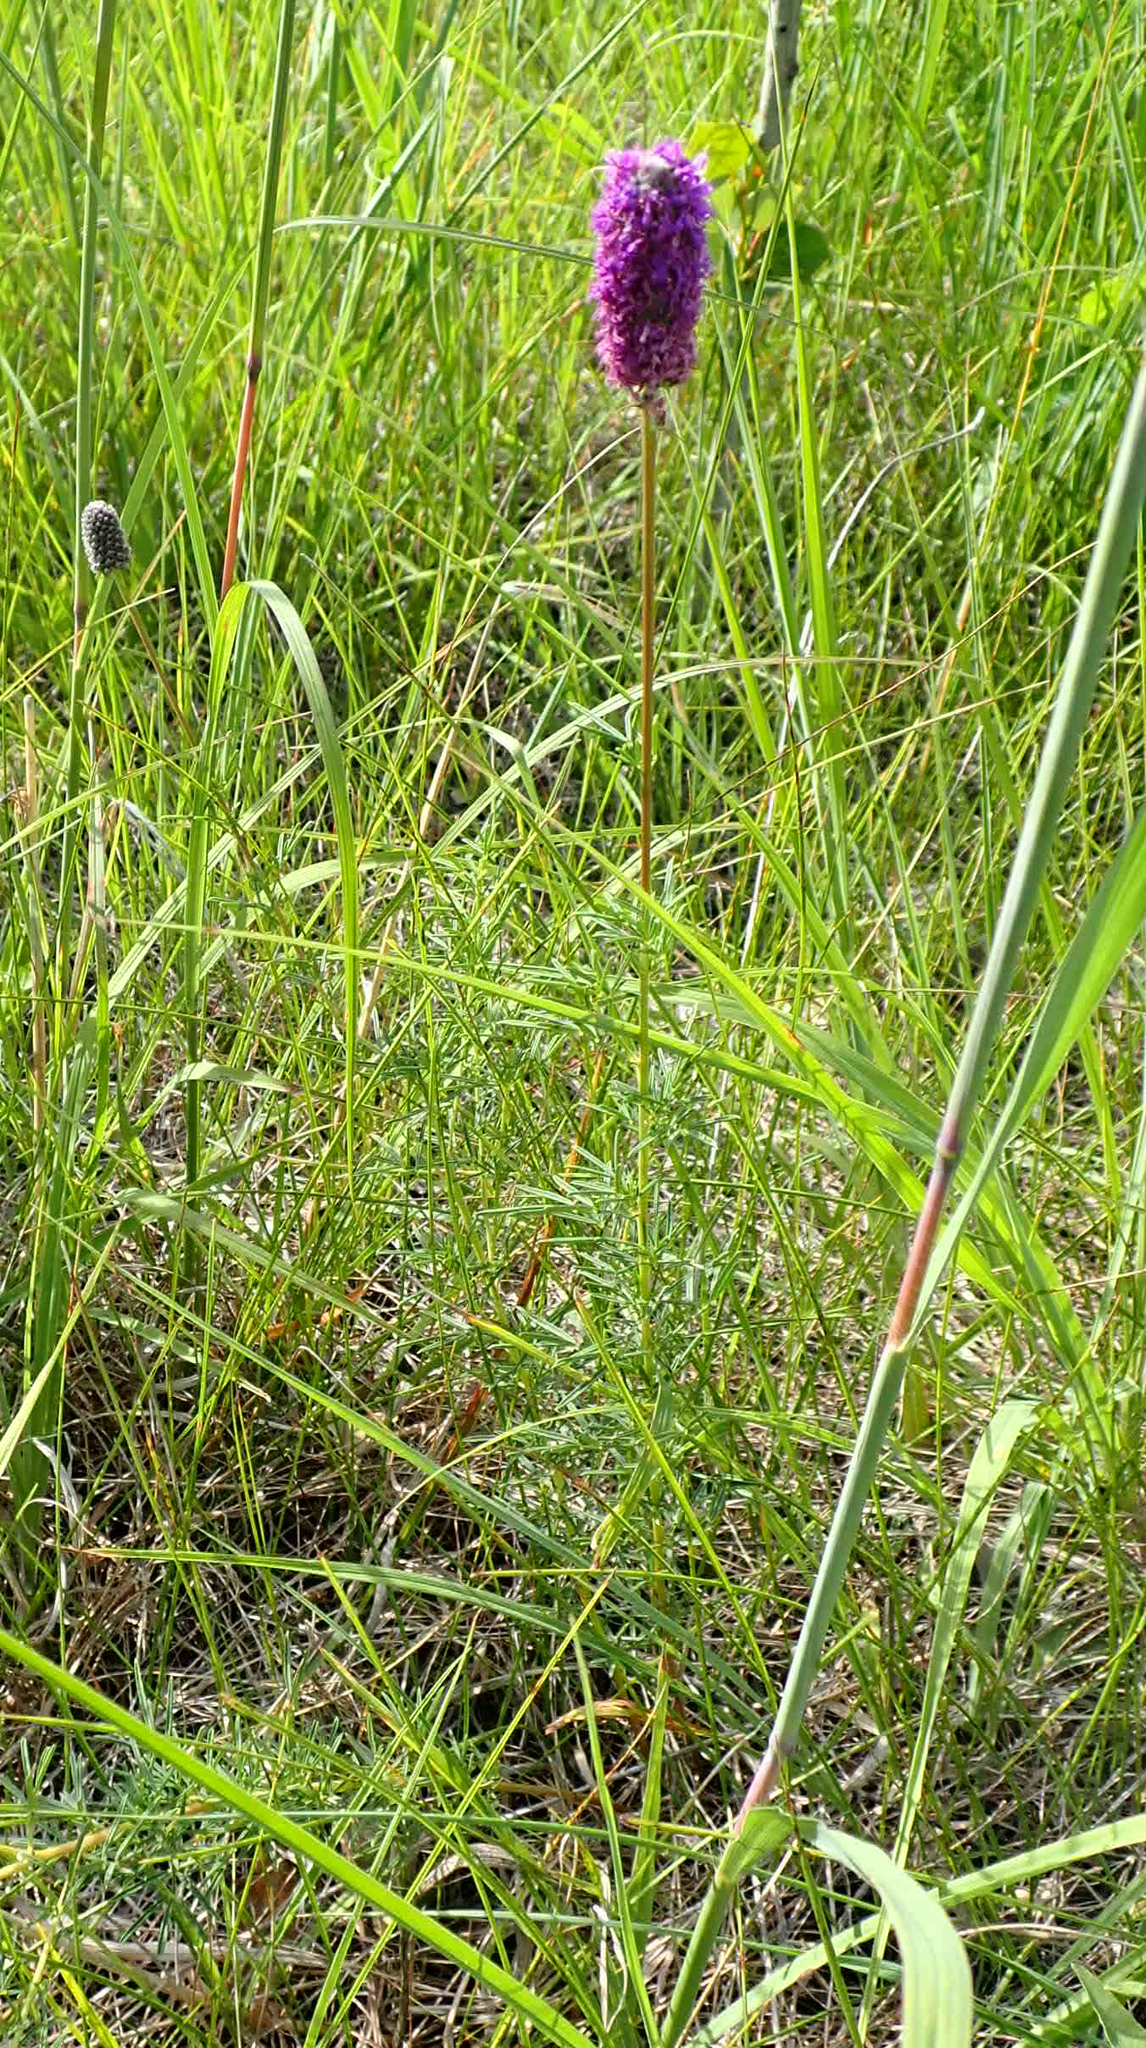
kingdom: Plantae
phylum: Tracheophyta
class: Magnoliopsida
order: Fabales
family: Fabaceae
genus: Dalea
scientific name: Dalea purpurea
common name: Purple prairie-clover
